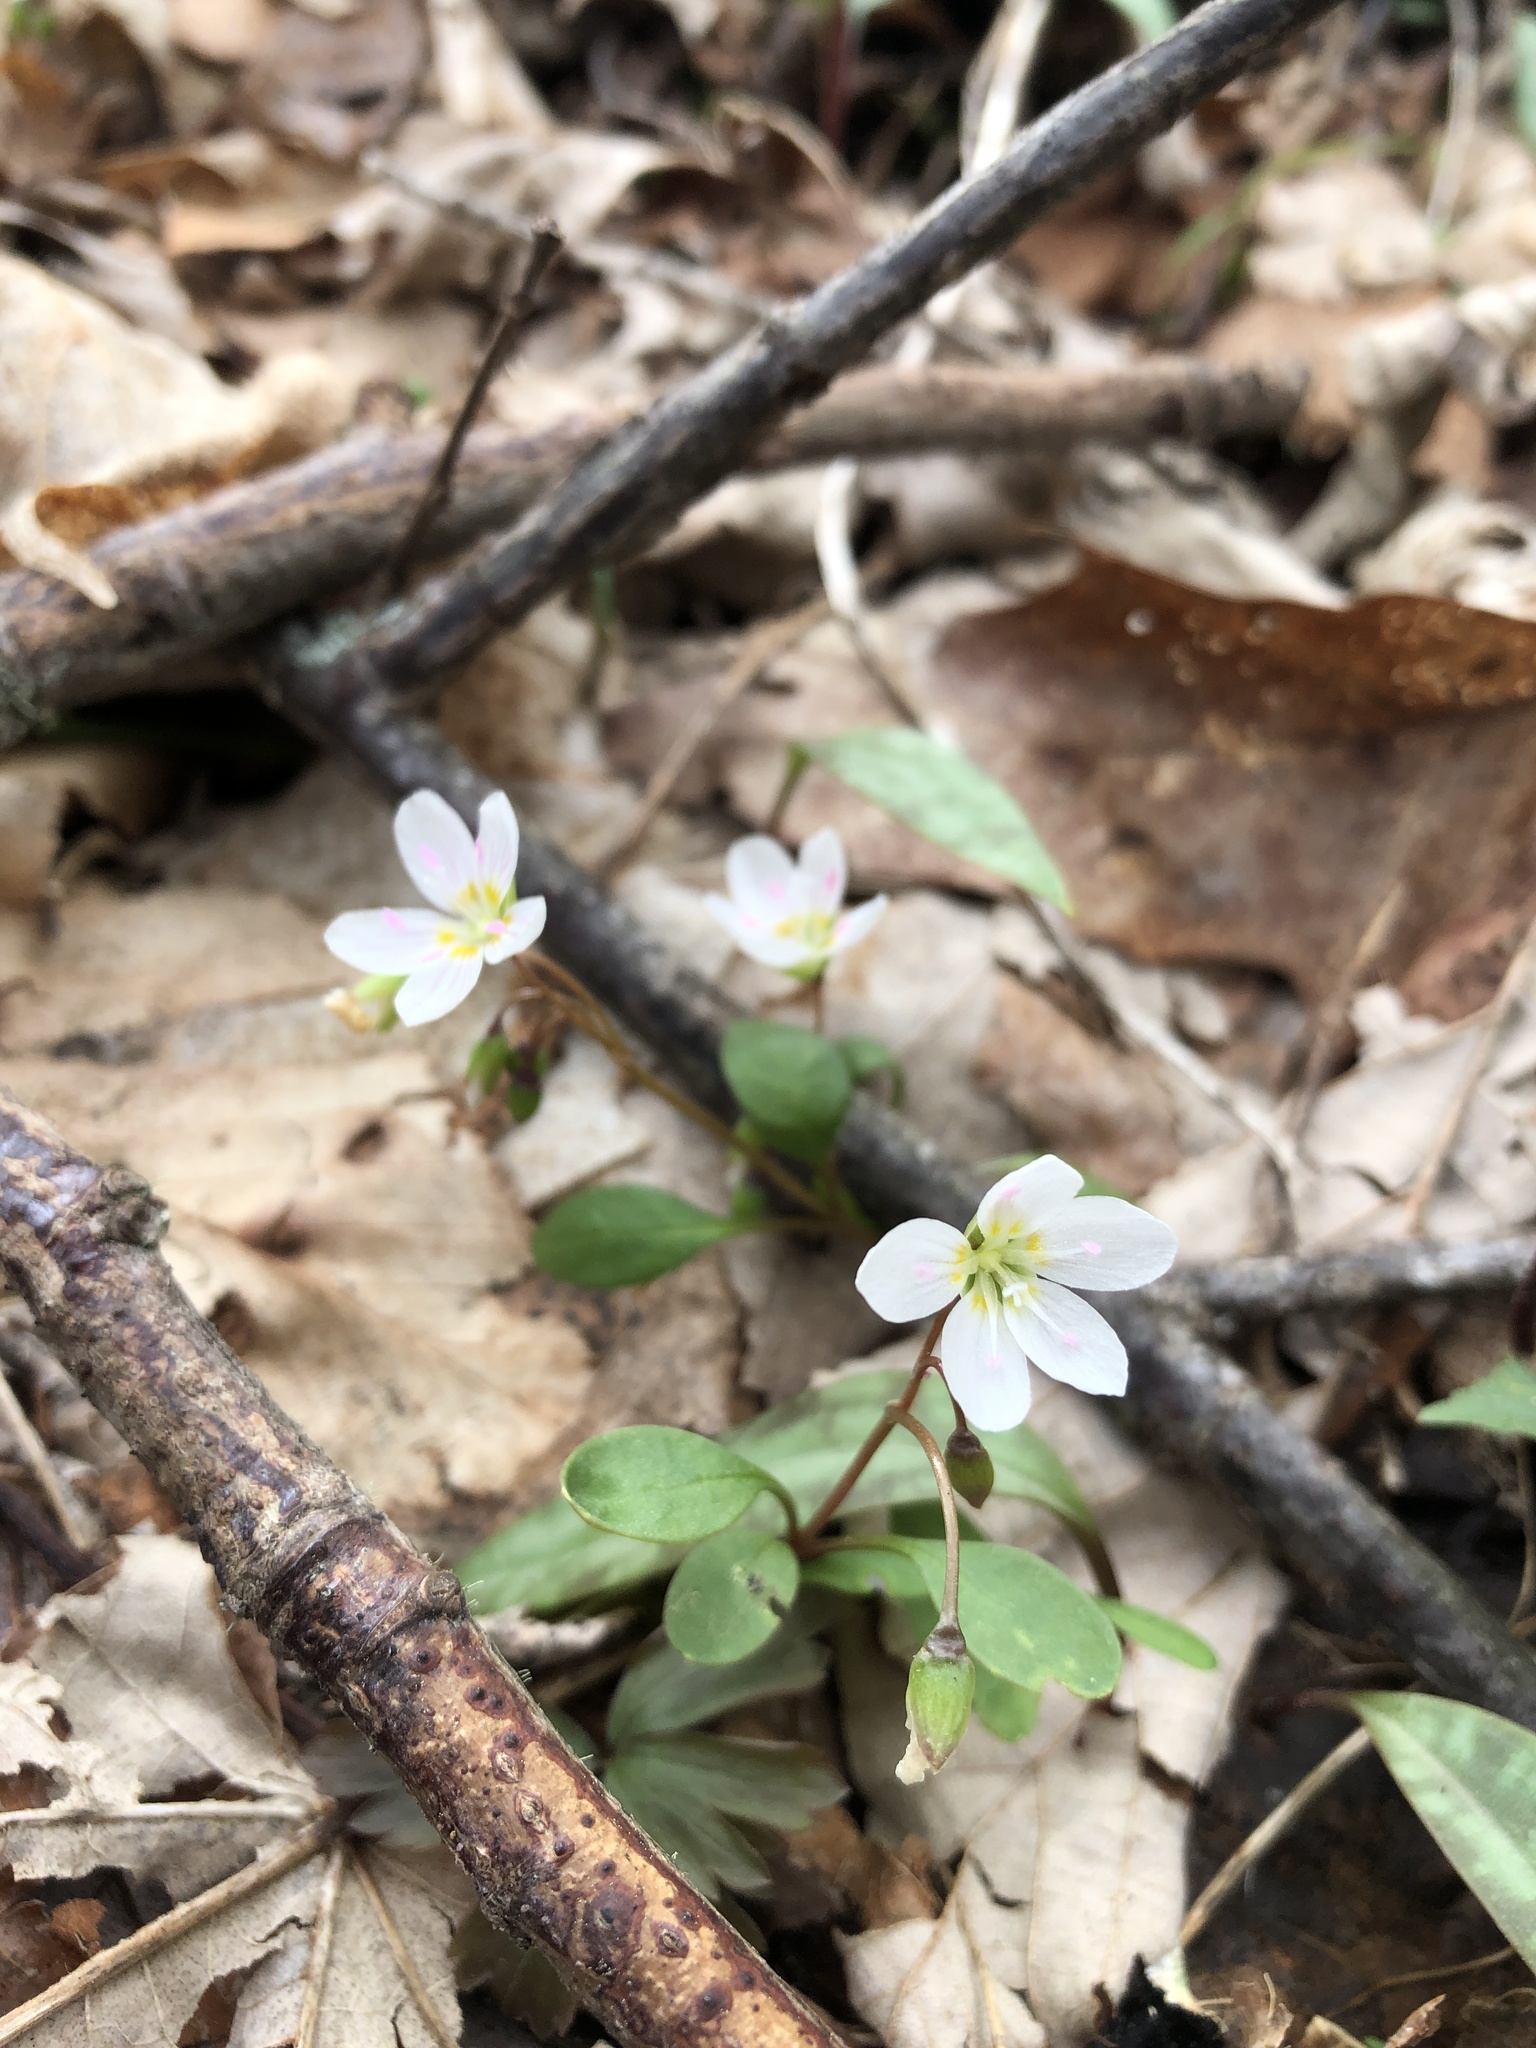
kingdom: Plantae
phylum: Tracheophyta
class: Magnoliopsida
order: Caryophyllales
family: Montiaceae
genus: Claytonia
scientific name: Claytonia caroliniana
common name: Carolina spring beauty
